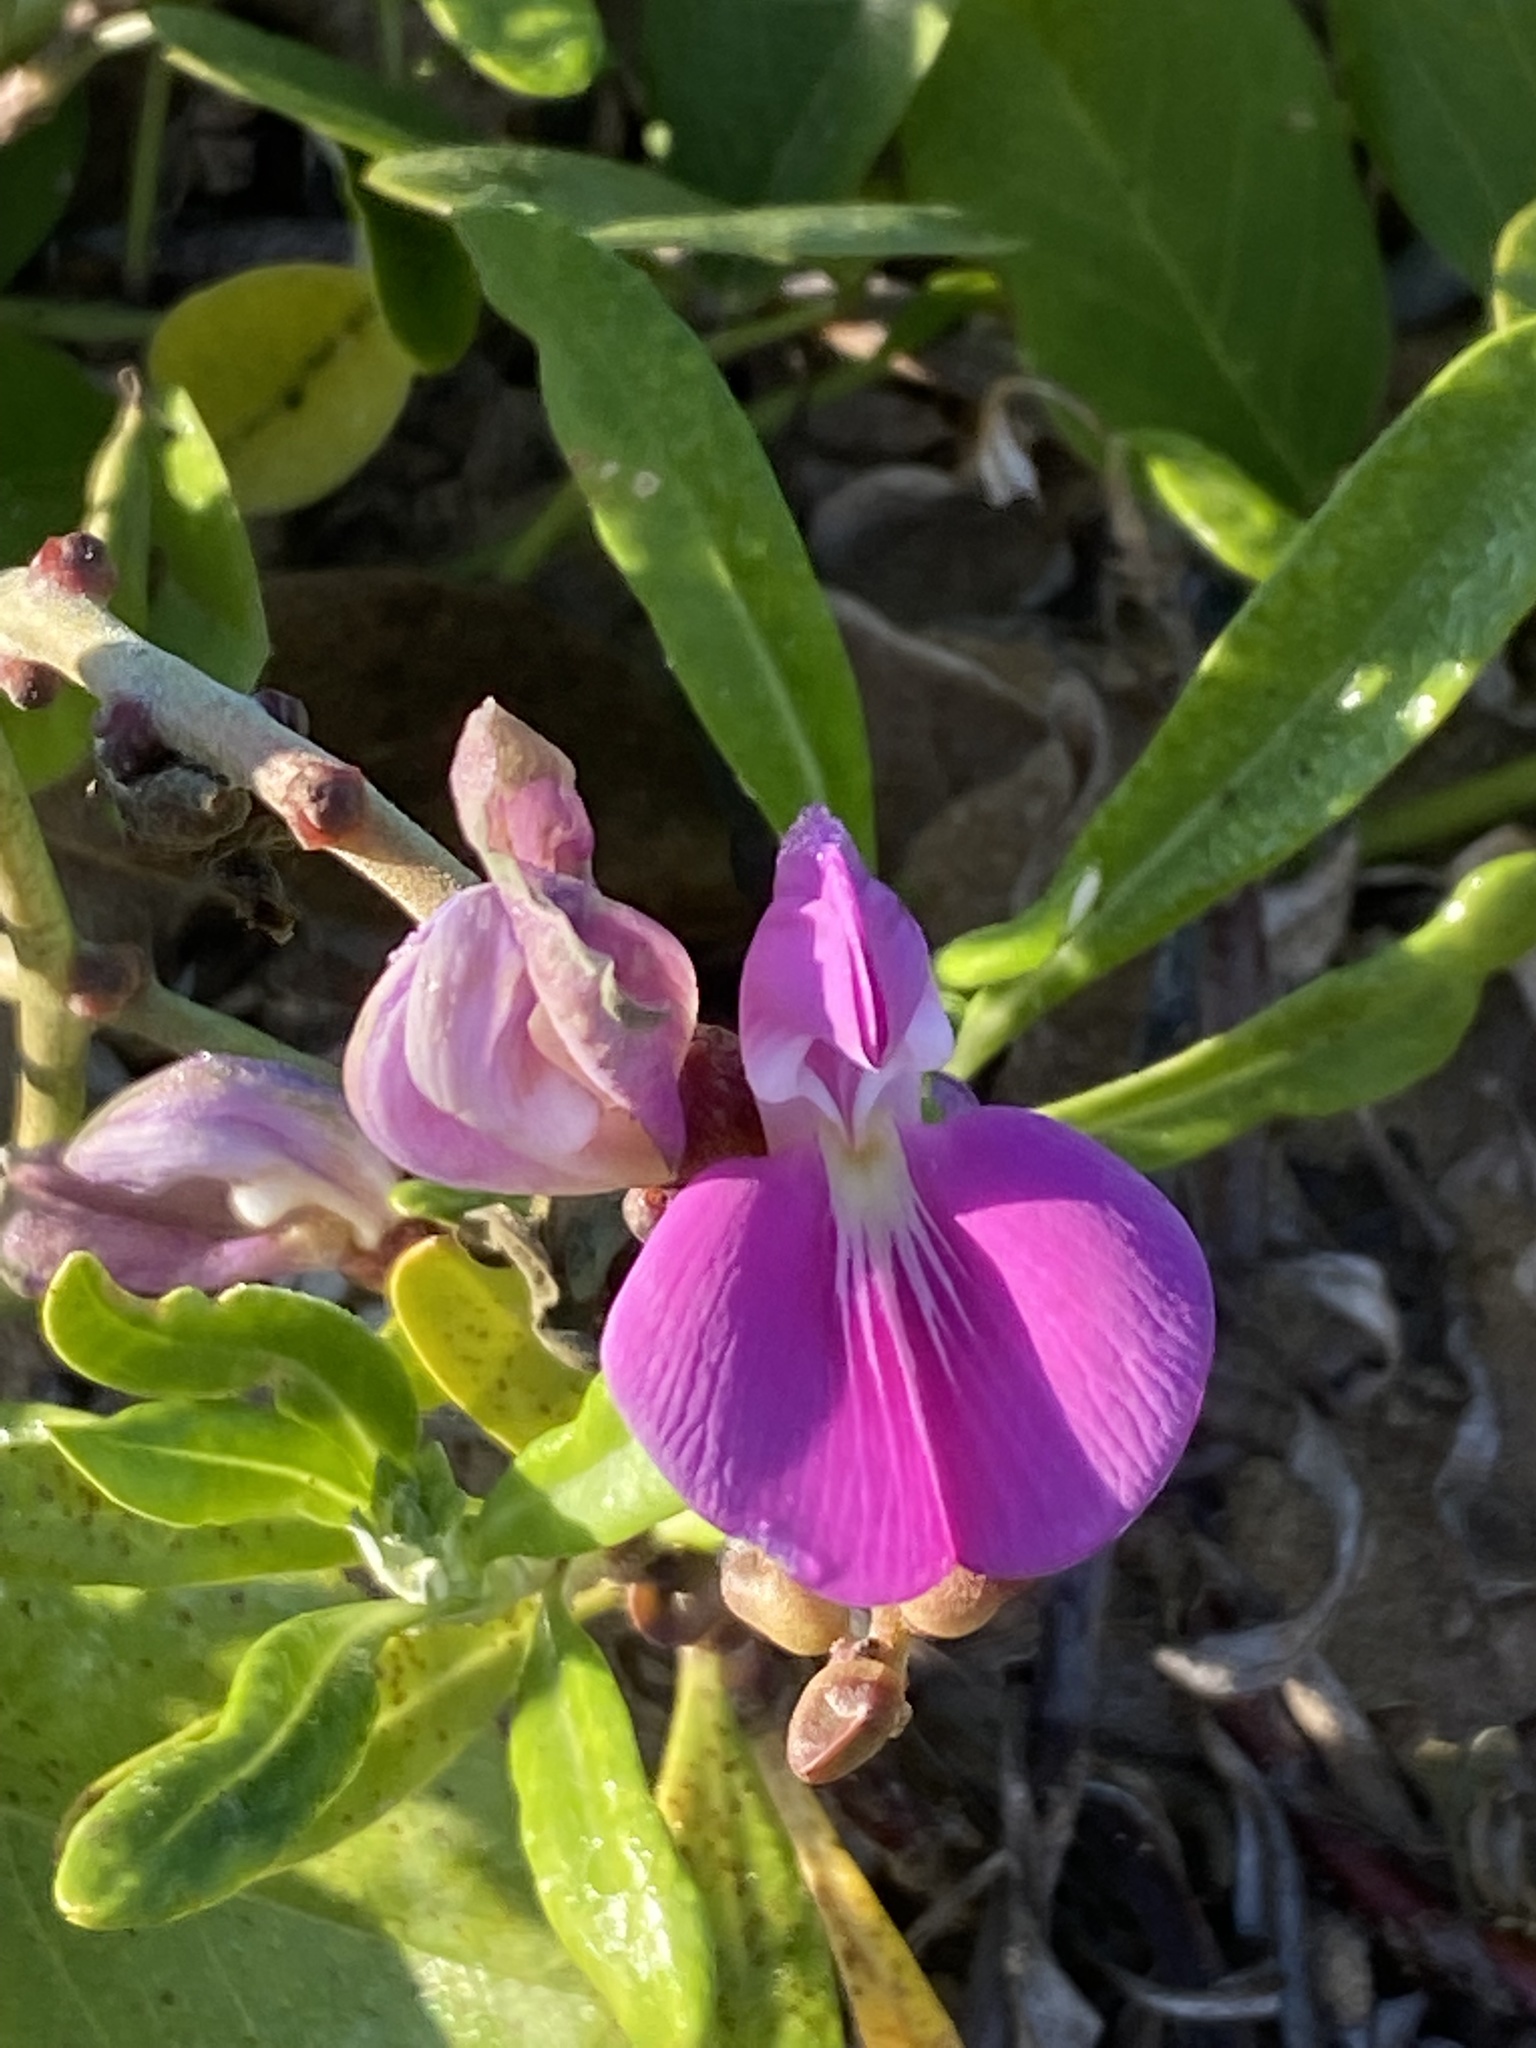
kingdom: Plantae
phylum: Tracheophyta
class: Magnoliopsida
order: Fabales
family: Fabaceae
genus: Canavalia
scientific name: Canavalia rosea
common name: Beach-bean
